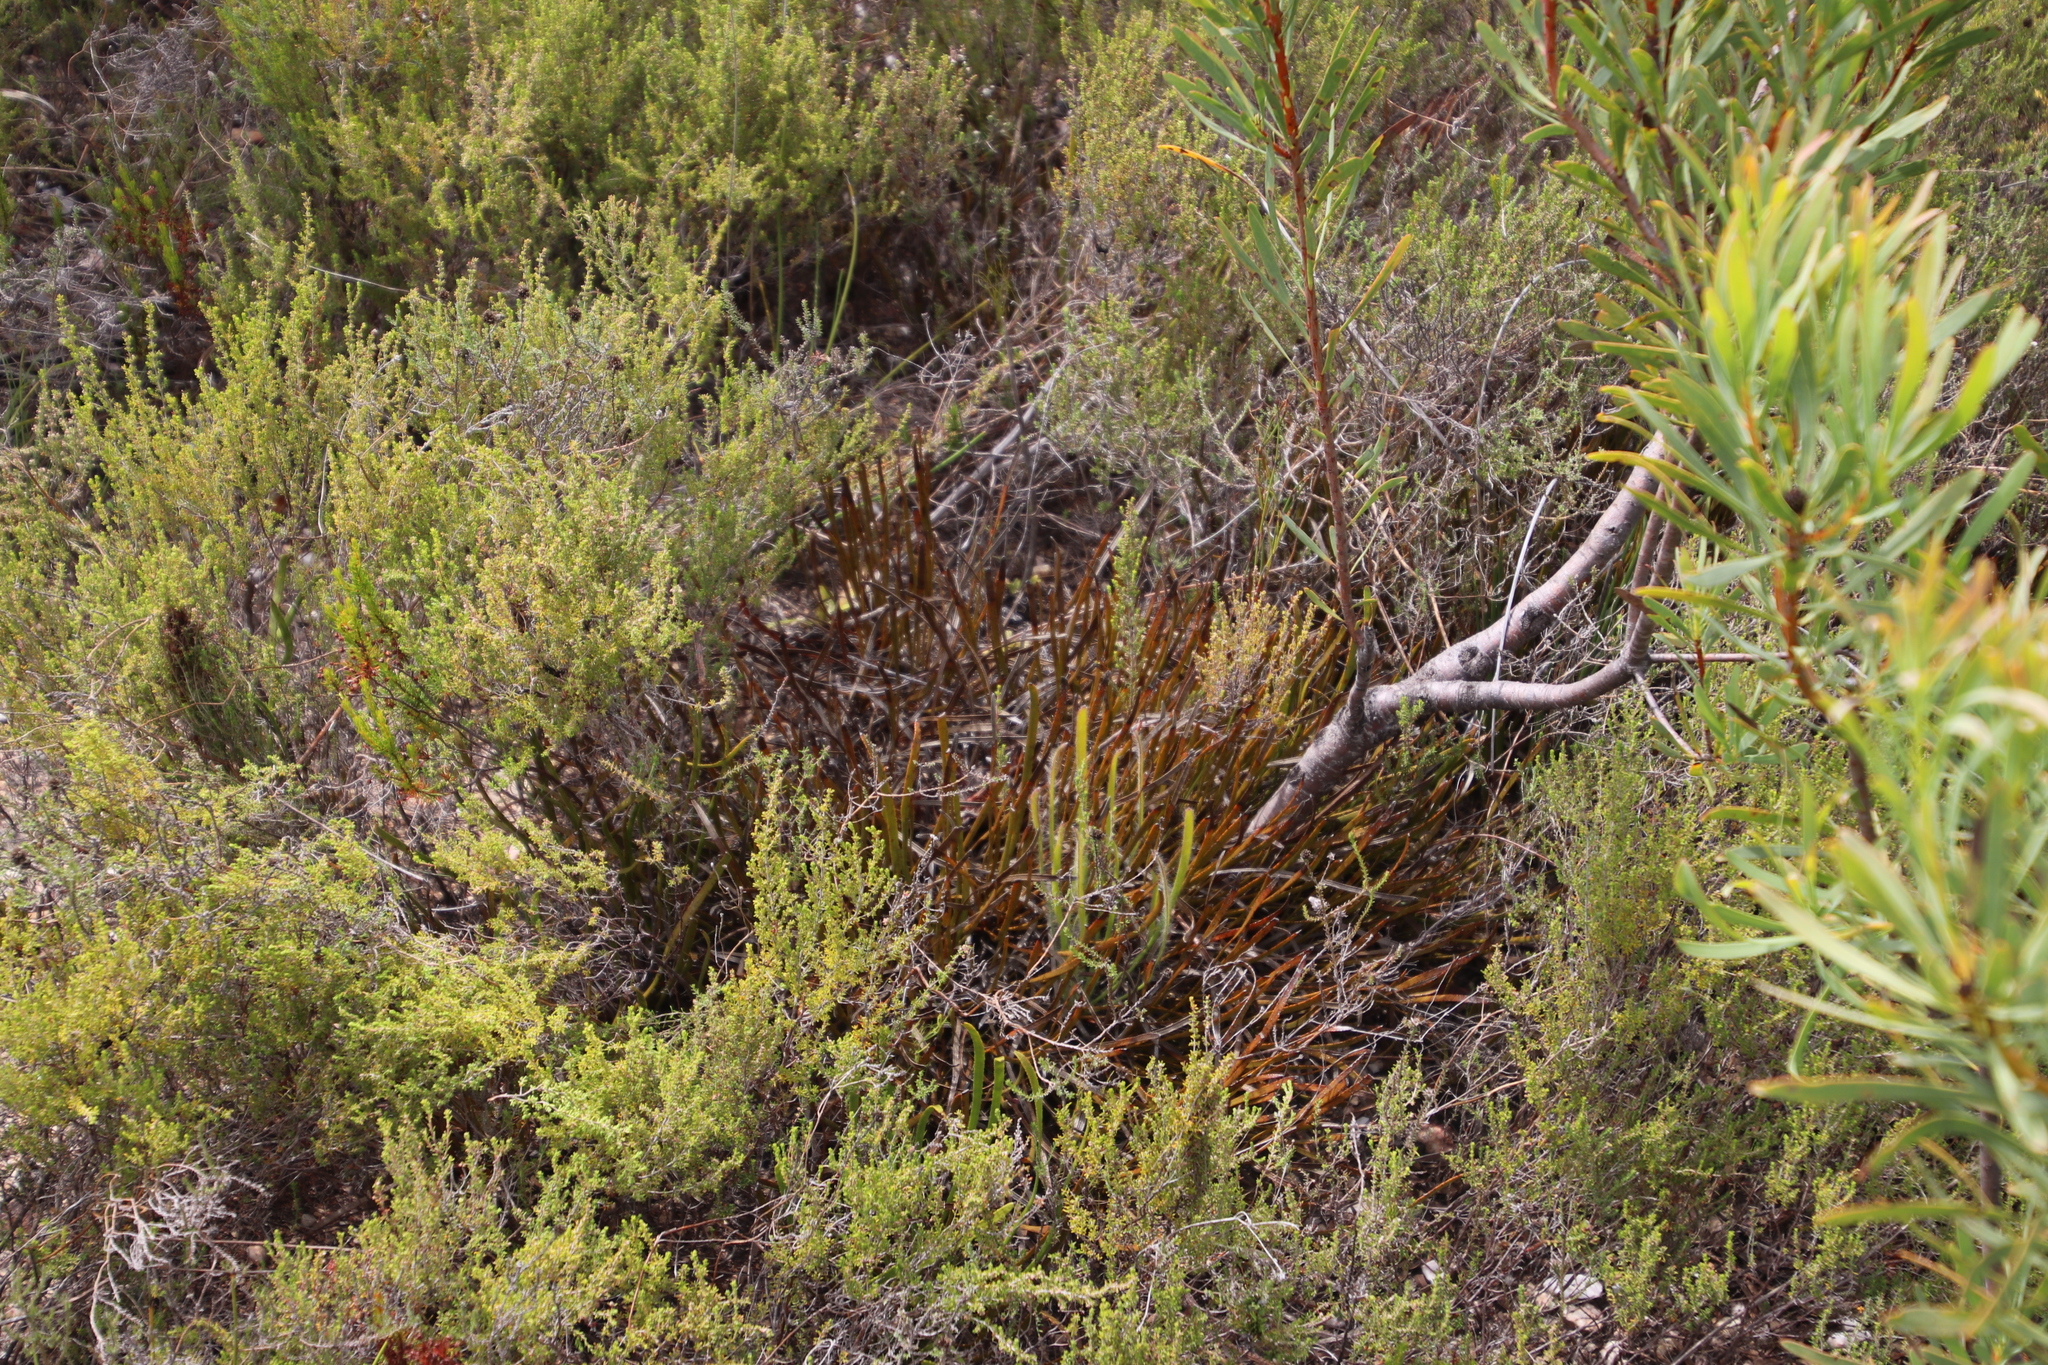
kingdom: Plantae
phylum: Tracheophyta
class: Magnoliopsida
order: Proteales
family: Proteaceae
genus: Protea
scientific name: Protea aspera
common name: Rough-leaf sugarbush
